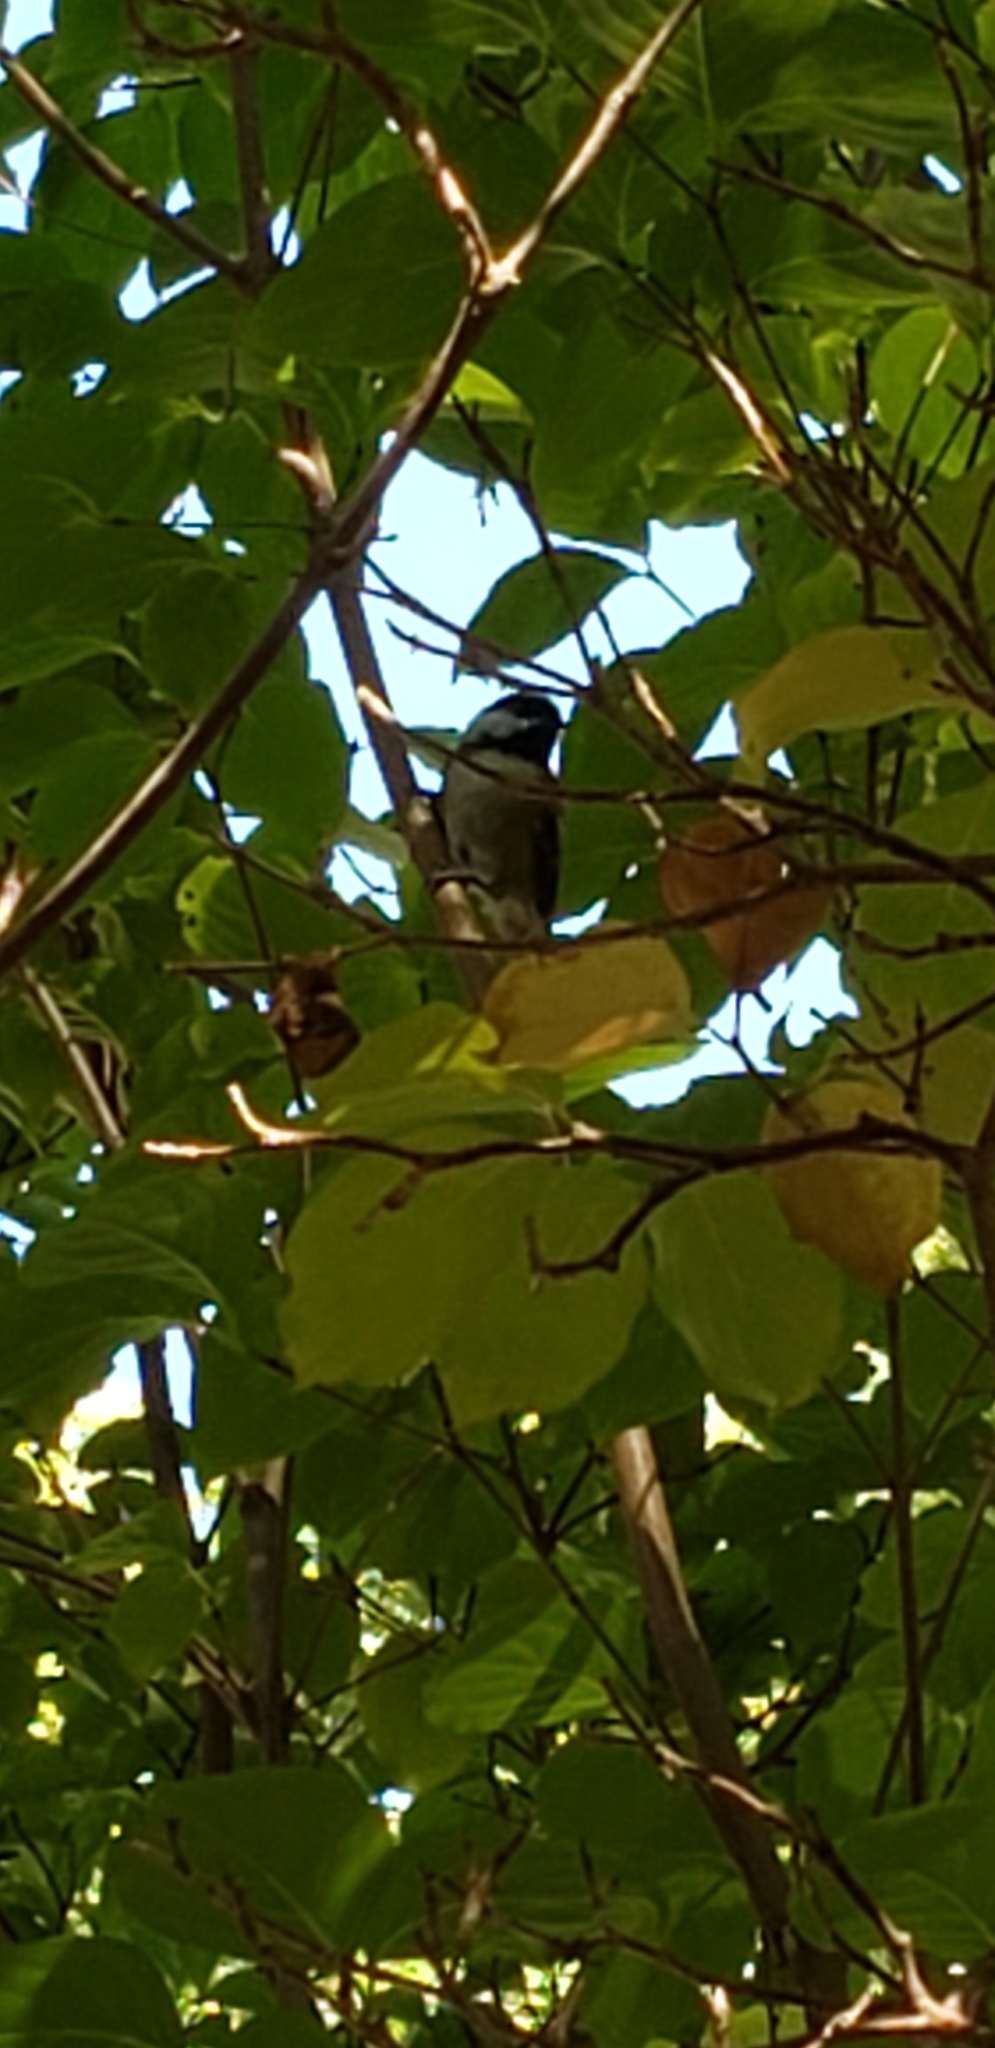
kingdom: Animalia
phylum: Chordata
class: Aves
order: Passeriformes
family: Paridae
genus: Poecile
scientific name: Poecile atricapillus
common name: Black-capped chickadee
